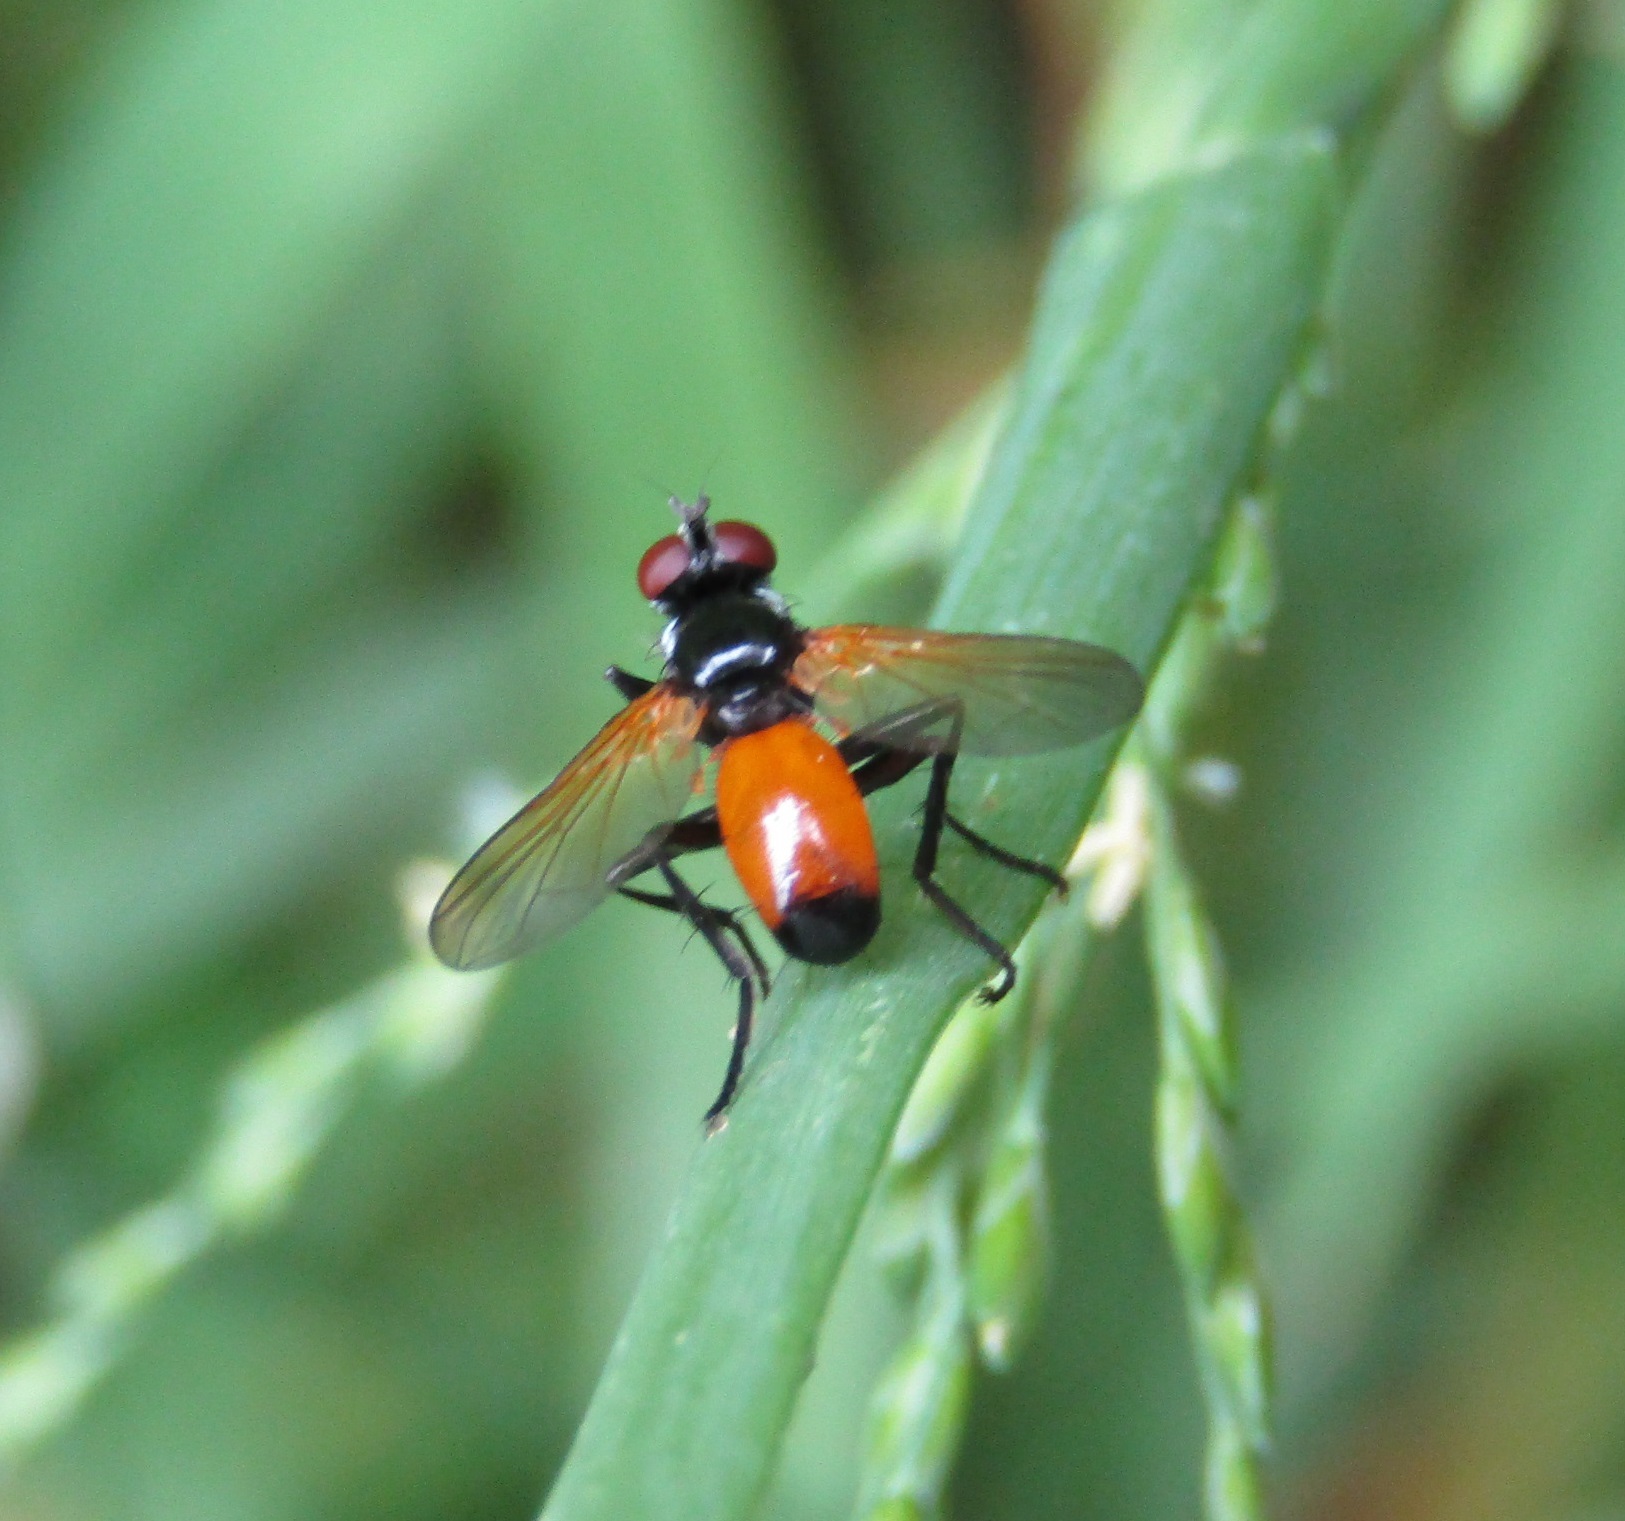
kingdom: Animalia
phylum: Arthropoda
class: Insecta
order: Diptera
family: Tachinidae
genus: Huttonobesseria
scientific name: Huttonobesseria verecunda
